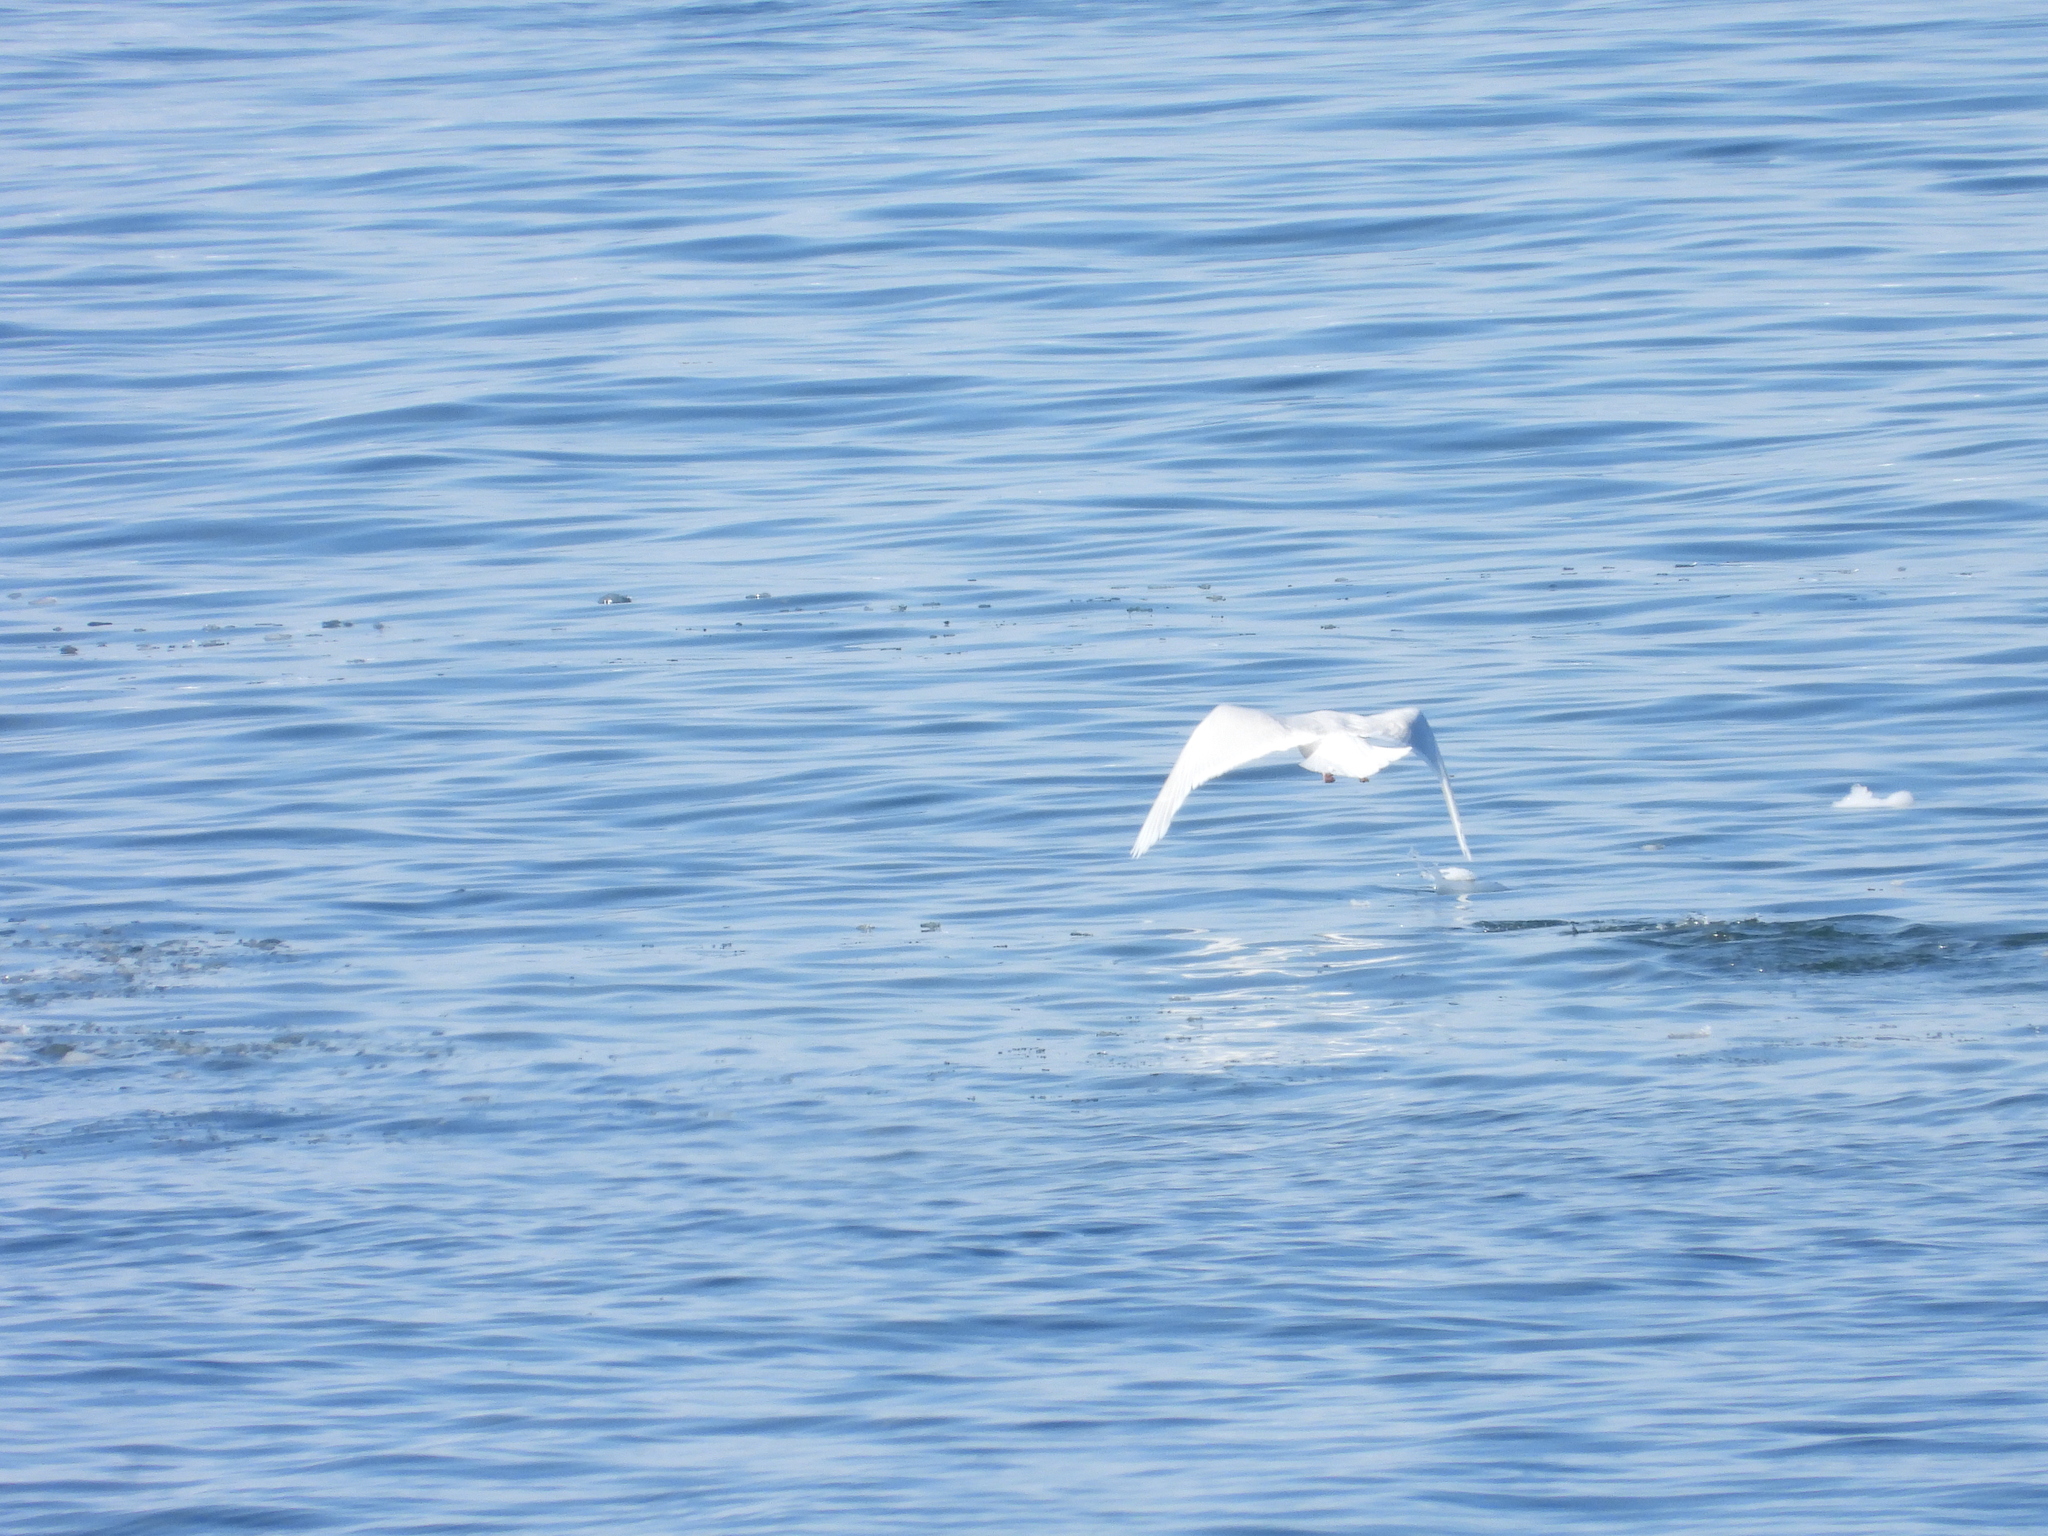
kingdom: Animalia
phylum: Chordata
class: Aves
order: Charadriiformes
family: Laridae
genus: Larus
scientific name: Larus hyperboreus
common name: Glaucous gull
